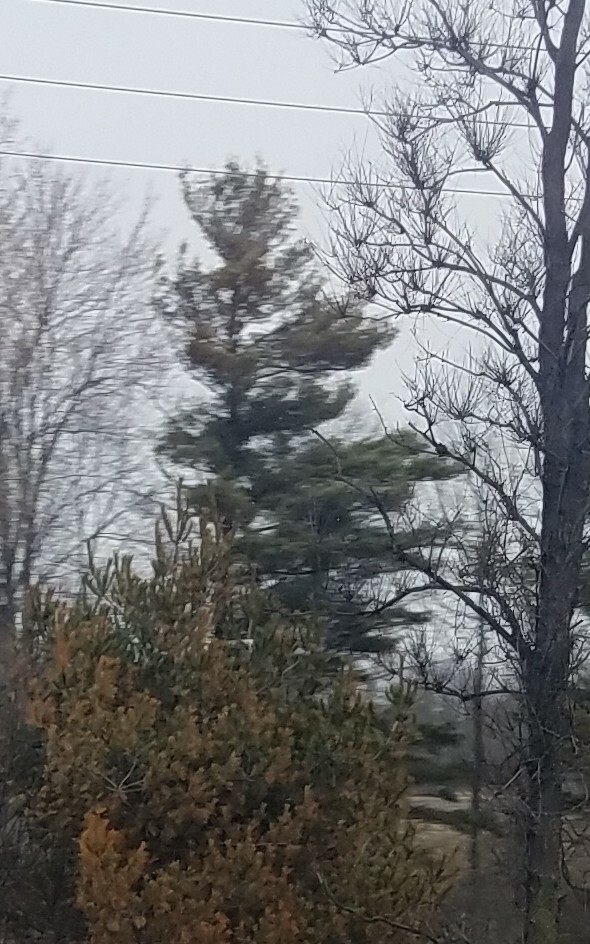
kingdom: Plantae
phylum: Tracheophyta
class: Pinopsida
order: Pinales
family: Pinaceae
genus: Pinus
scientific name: Pinus strobus
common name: Weymouth pine
